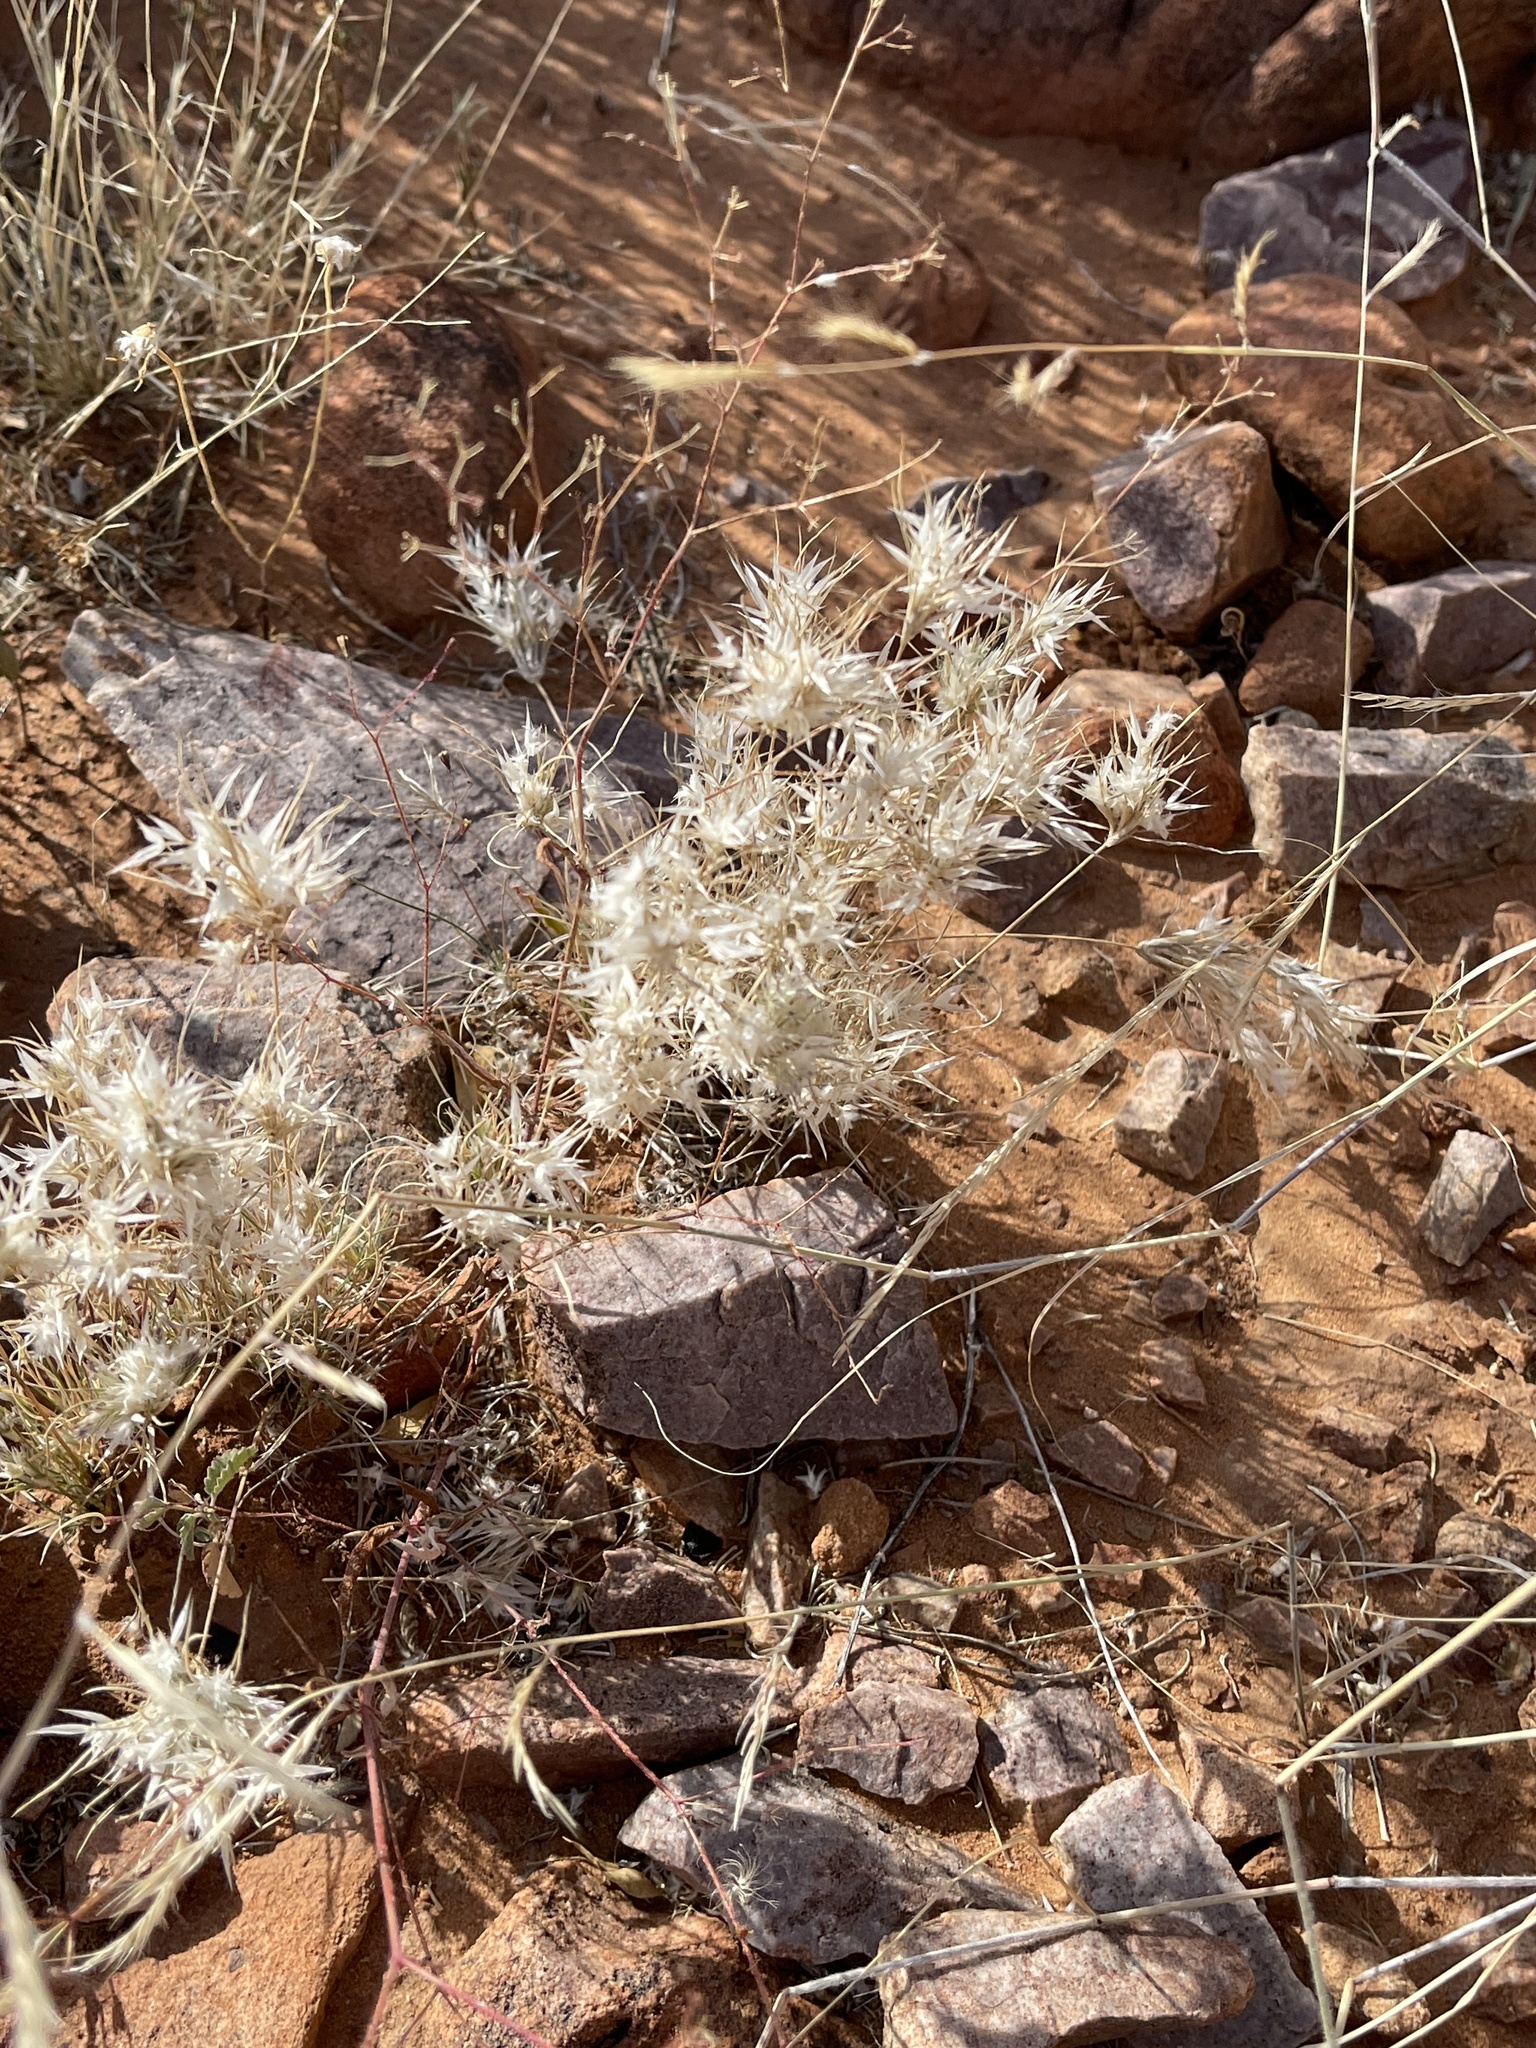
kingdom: Plantae
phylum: Tracheophyta
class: Liliopsida
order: Poales
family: Poaceae
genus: Dasyochloa
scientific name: Dasyochloa pulchella
